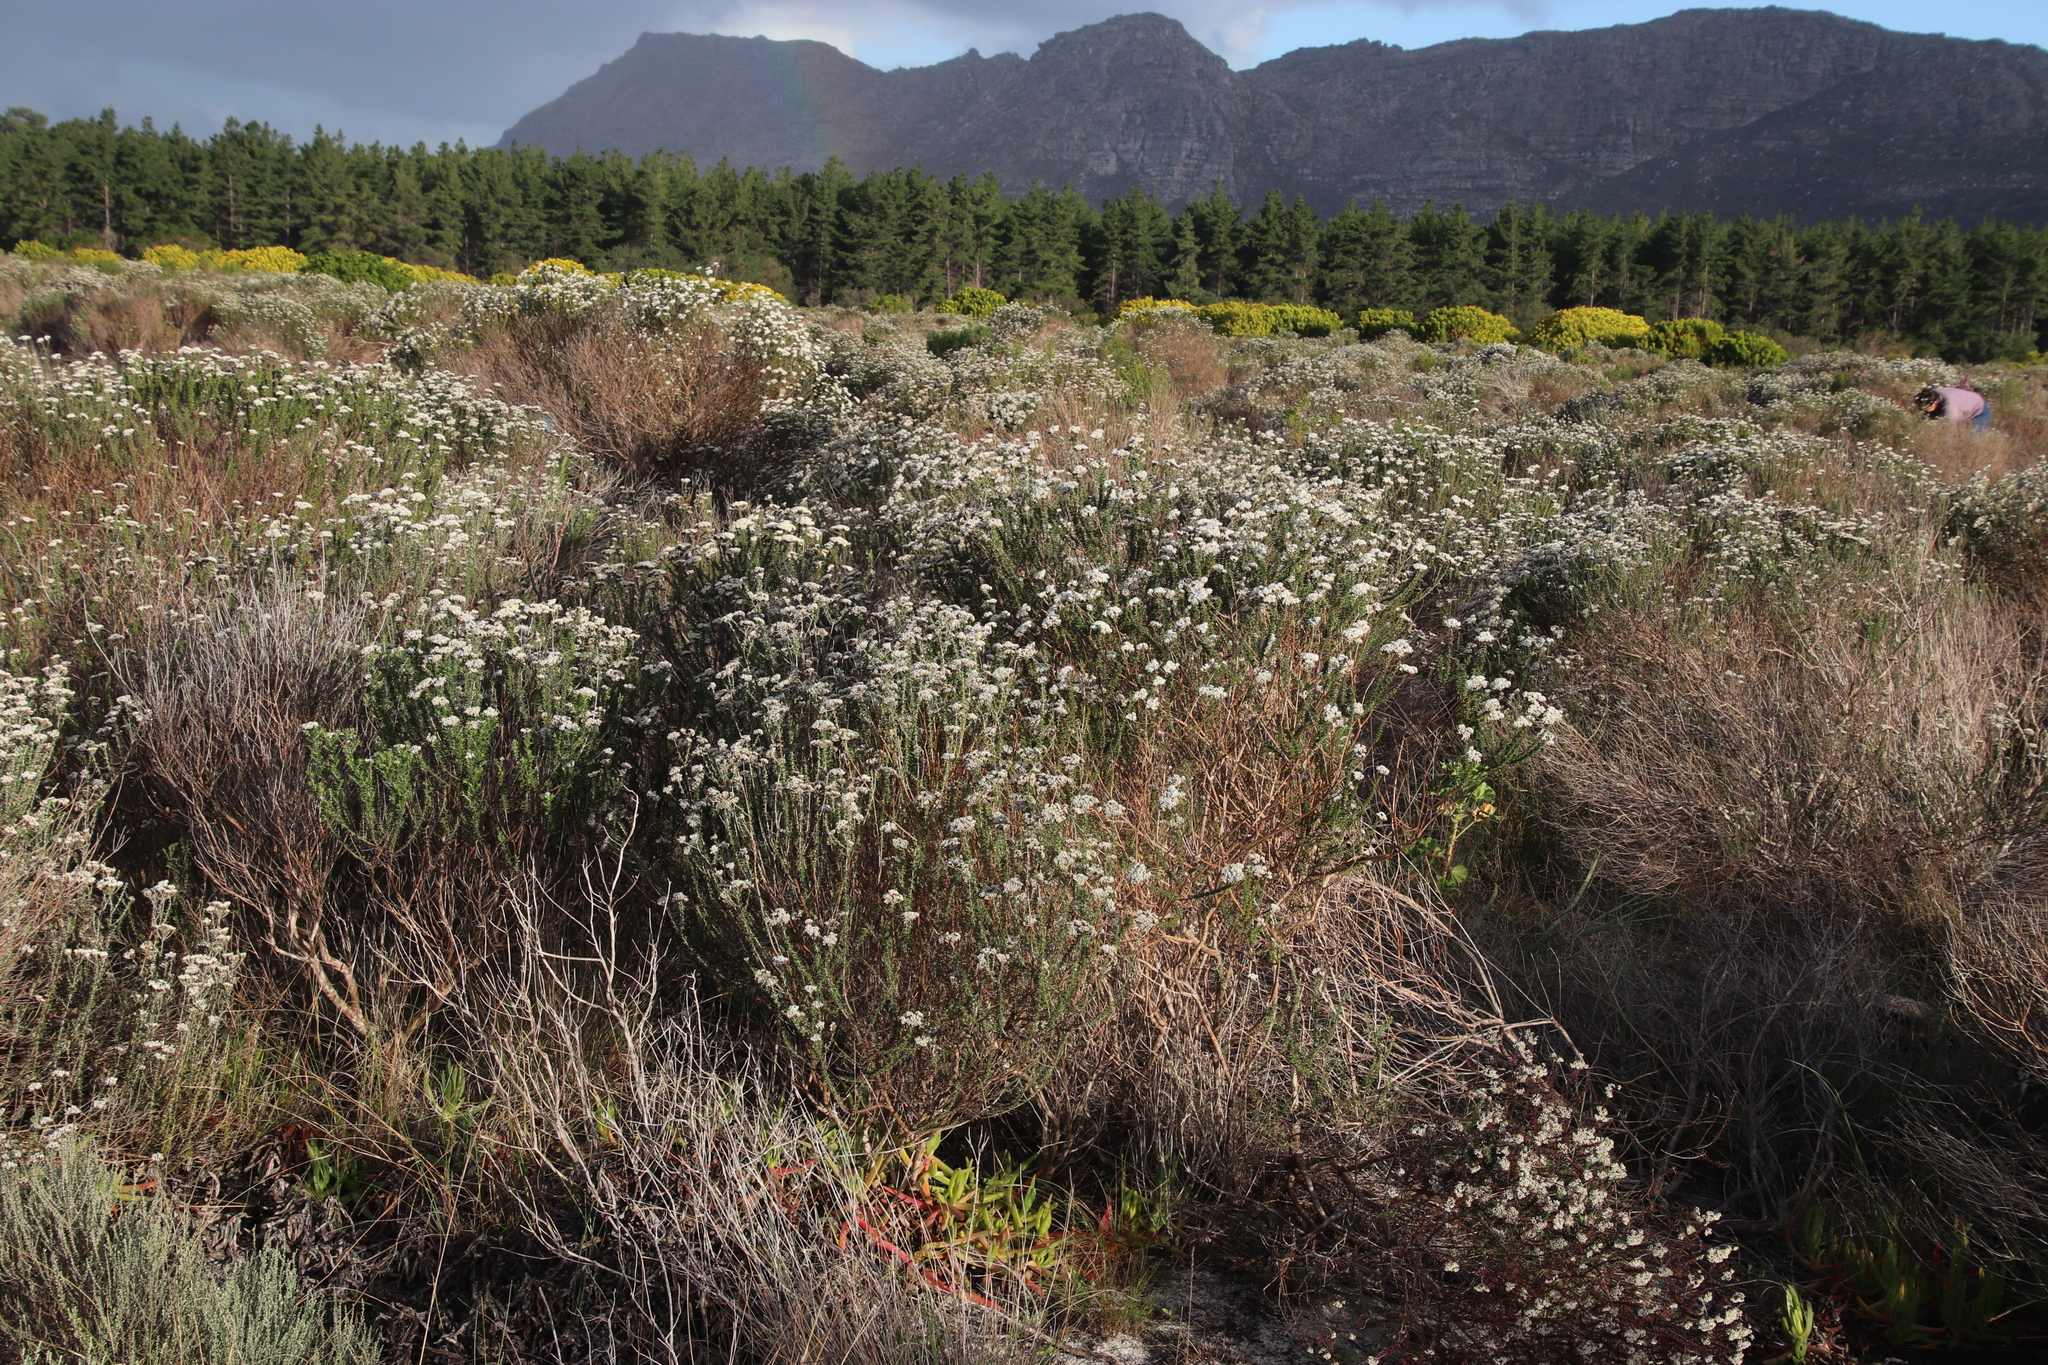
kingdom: Plantae
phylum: Tracheophyta
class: Magnoliopsida
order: Asterales
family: Asteraceae
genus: Metalasia
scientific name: Metalasia densa
